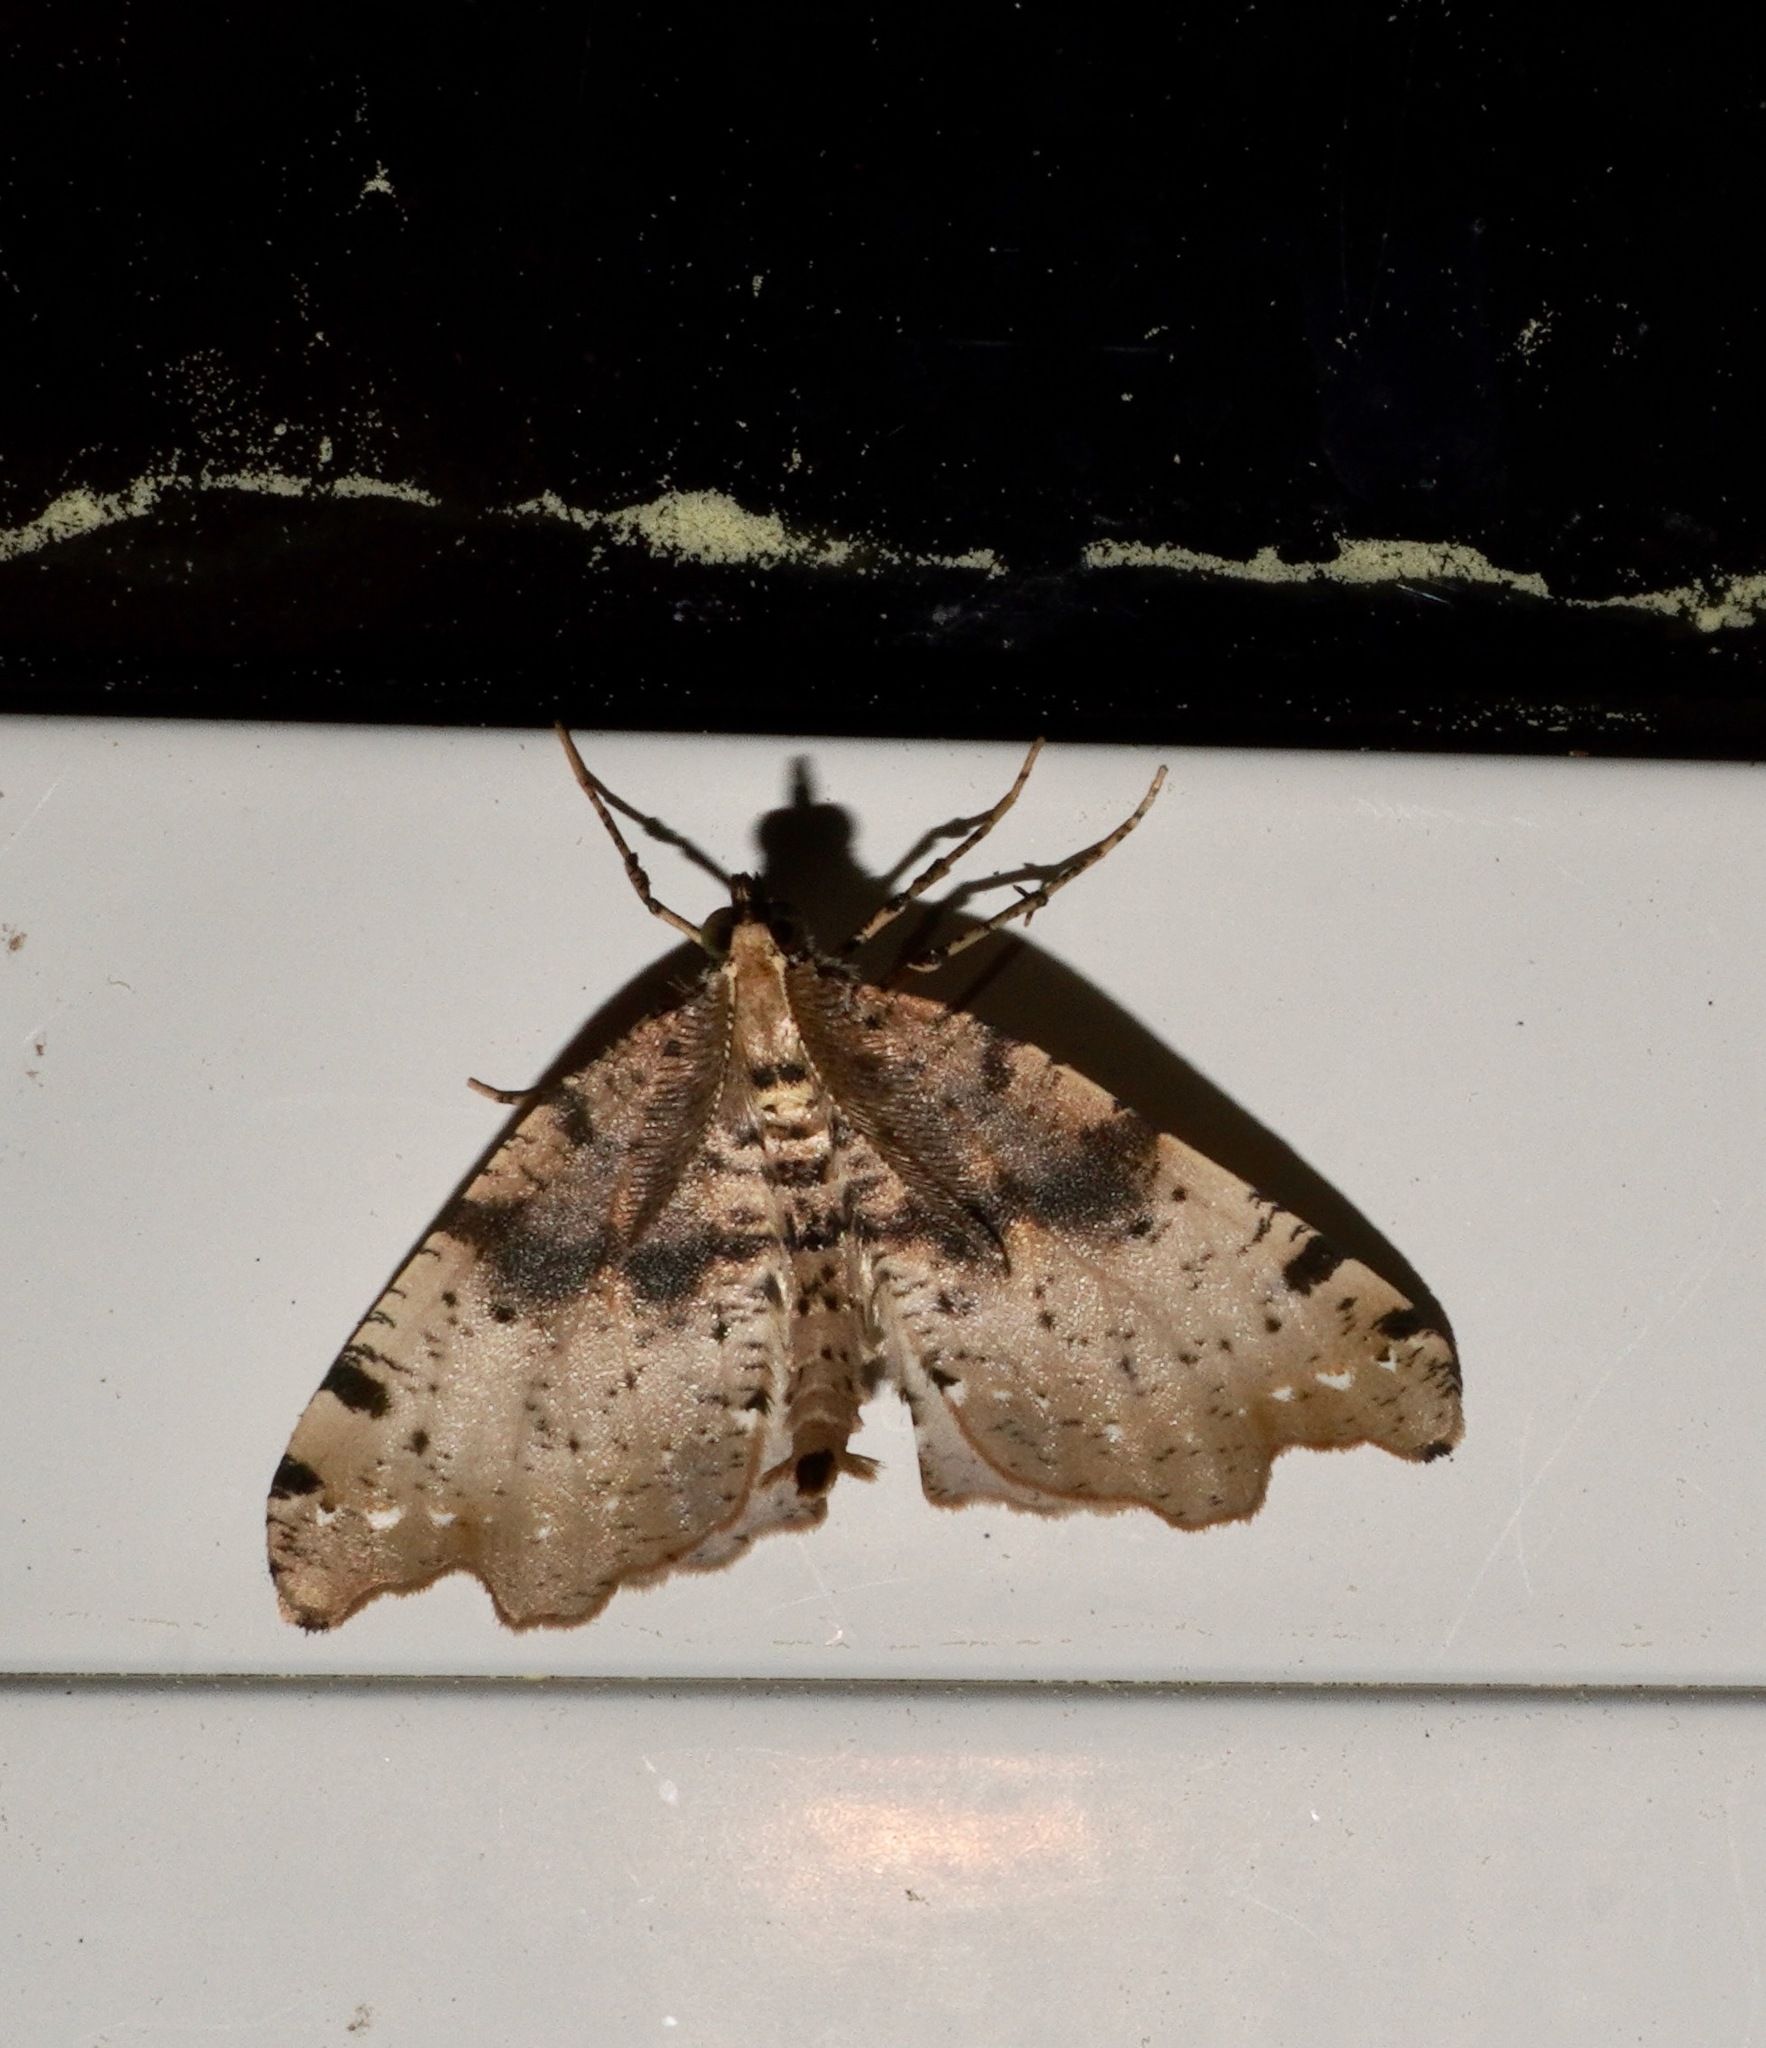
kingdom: Animalia
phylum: Arthropoda
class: Insecta
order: Lepidoptera
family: Geometridae
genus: Chalastra
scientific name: Chalastra pellurgata
